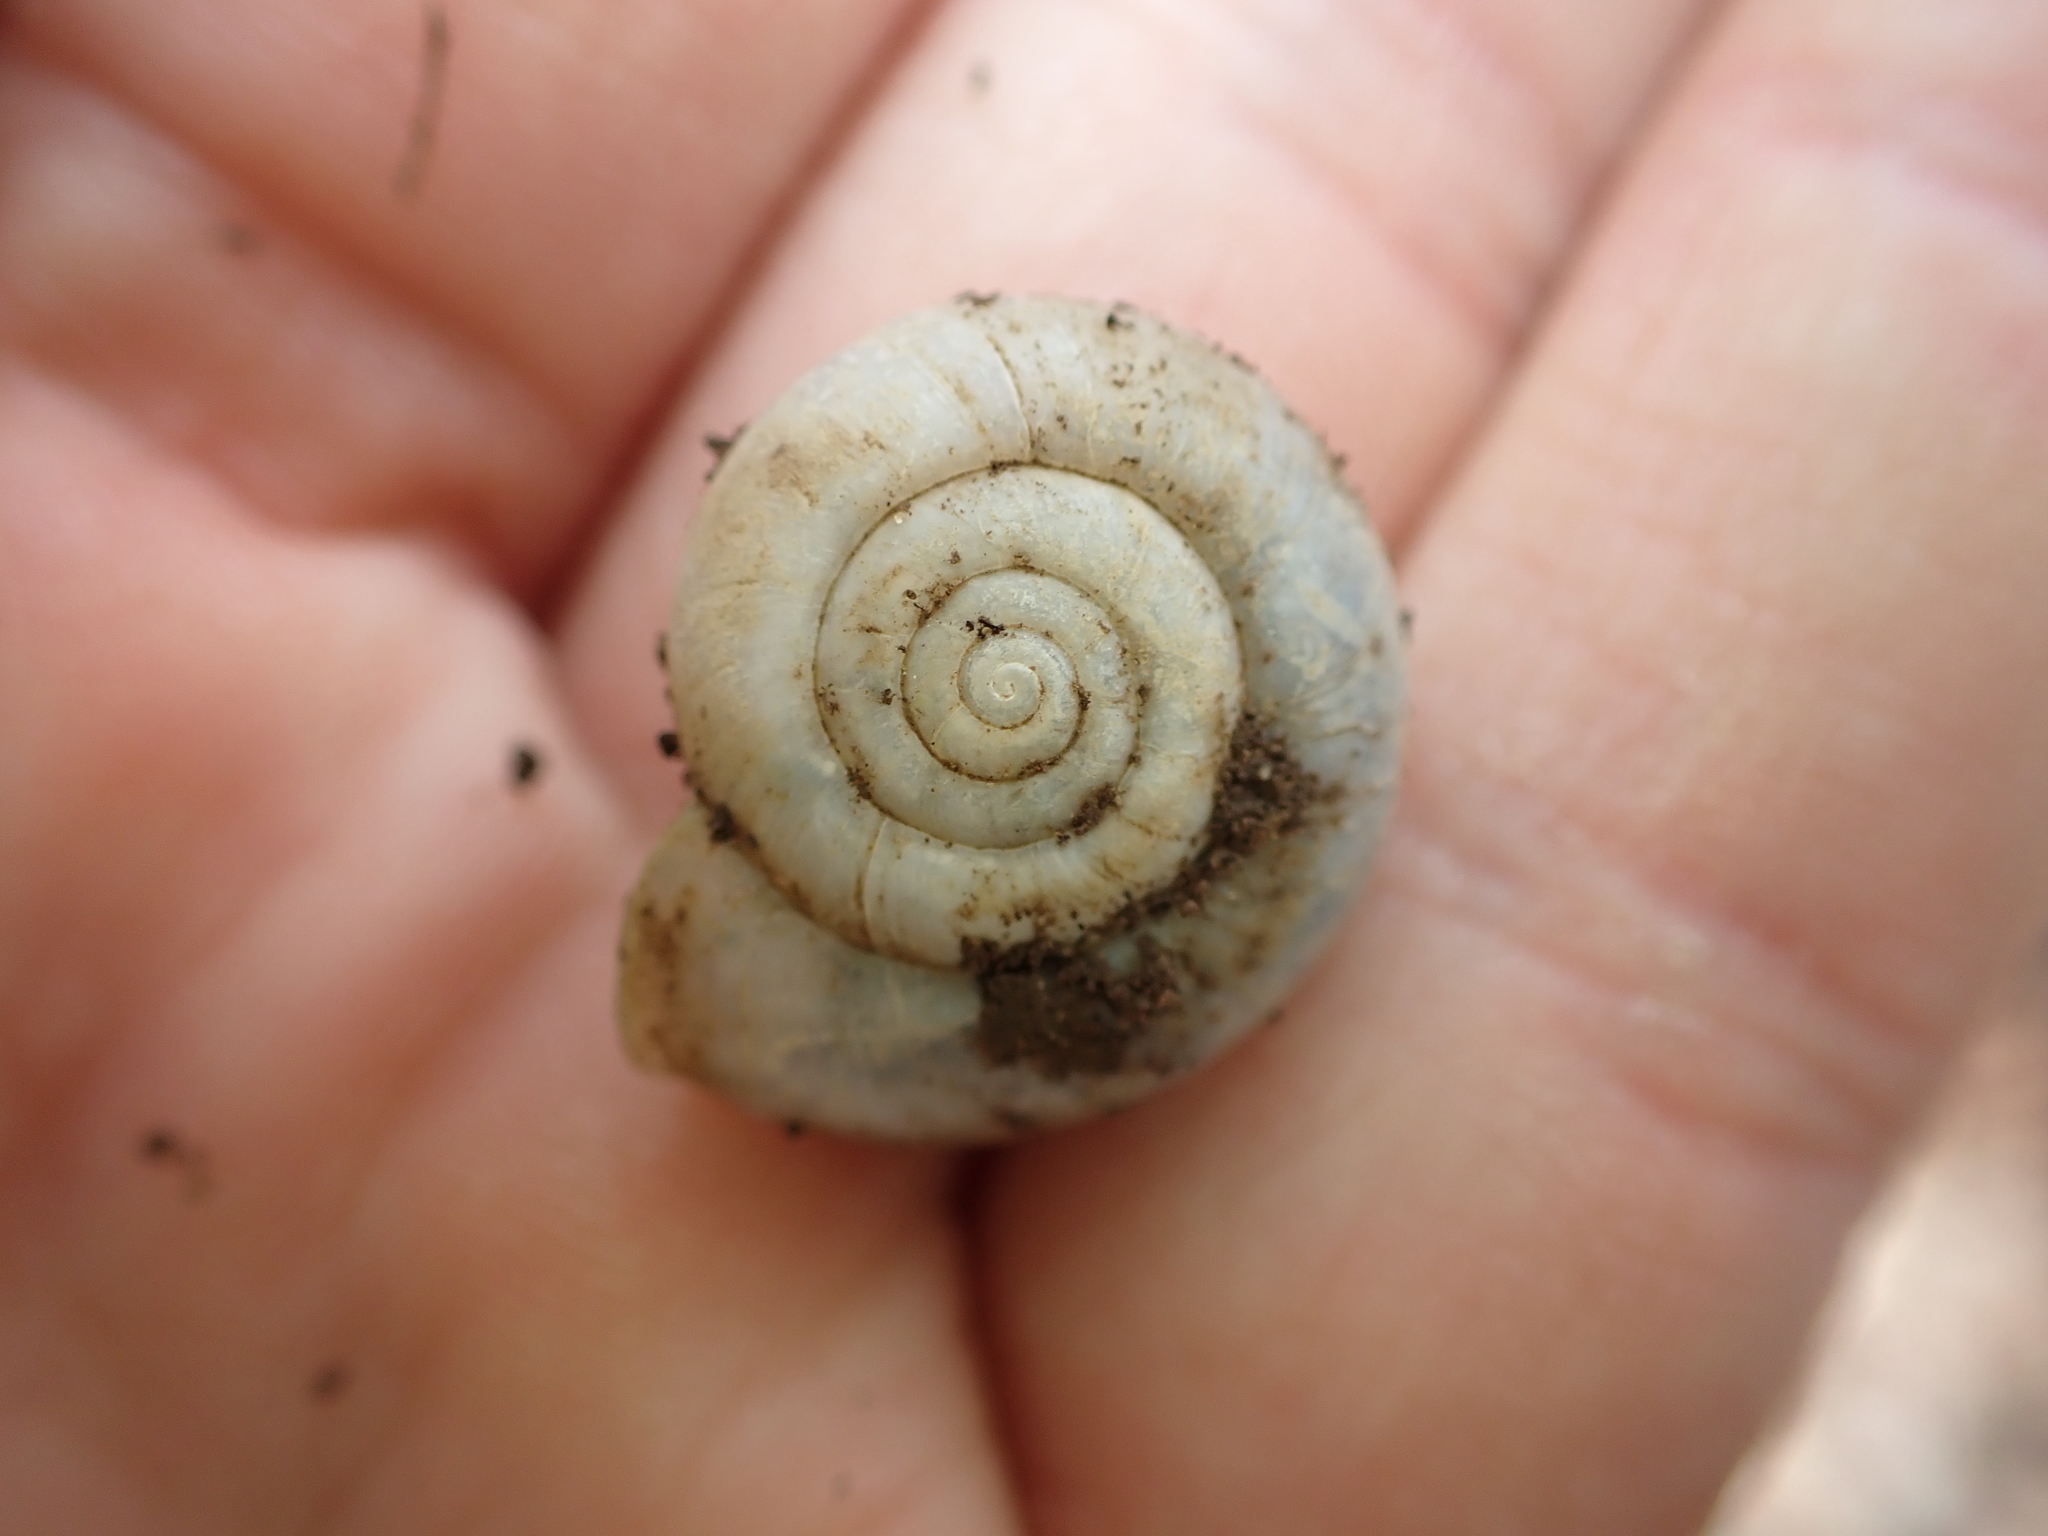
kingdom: Animalia
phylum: Mollusca
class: Gastropoda
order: Stylommatophora
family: Haplotrematidae
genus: Haplotrema
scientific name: Haplotrema concavum
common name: Gray-foot lancetooth
